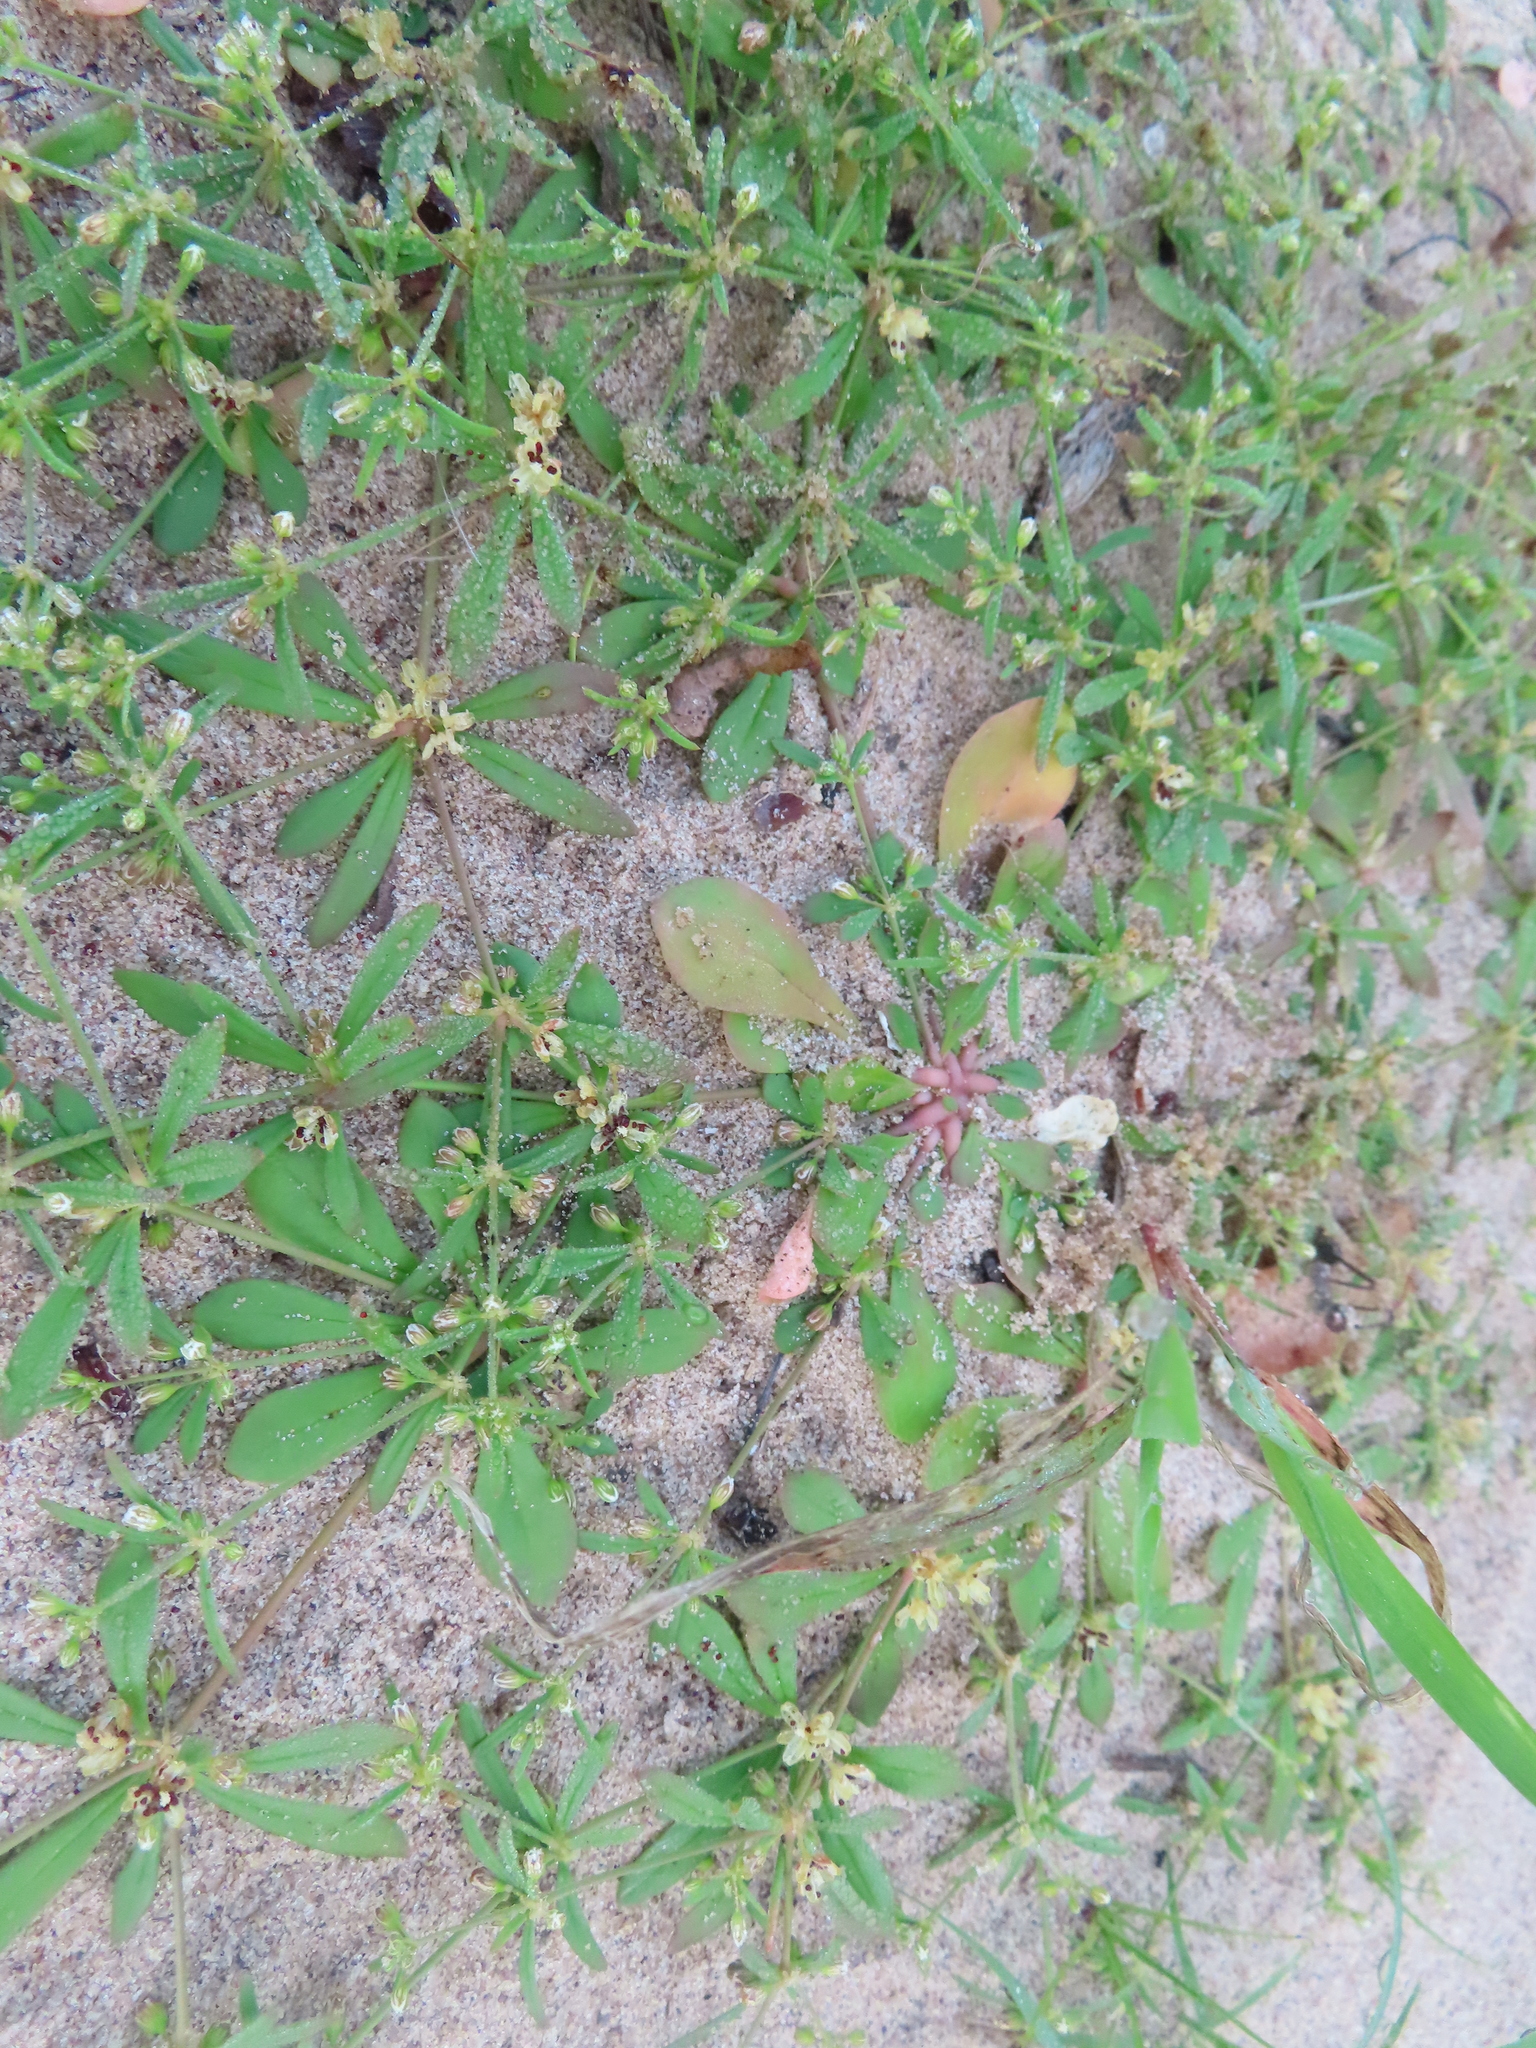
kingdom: Plantae
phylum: Tracheophyta
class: Magnoliopsida
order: Caryophyllales
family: Molluginaceae
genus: Mollugo
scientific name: Mollugo verticillata
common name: Green carpetweed
